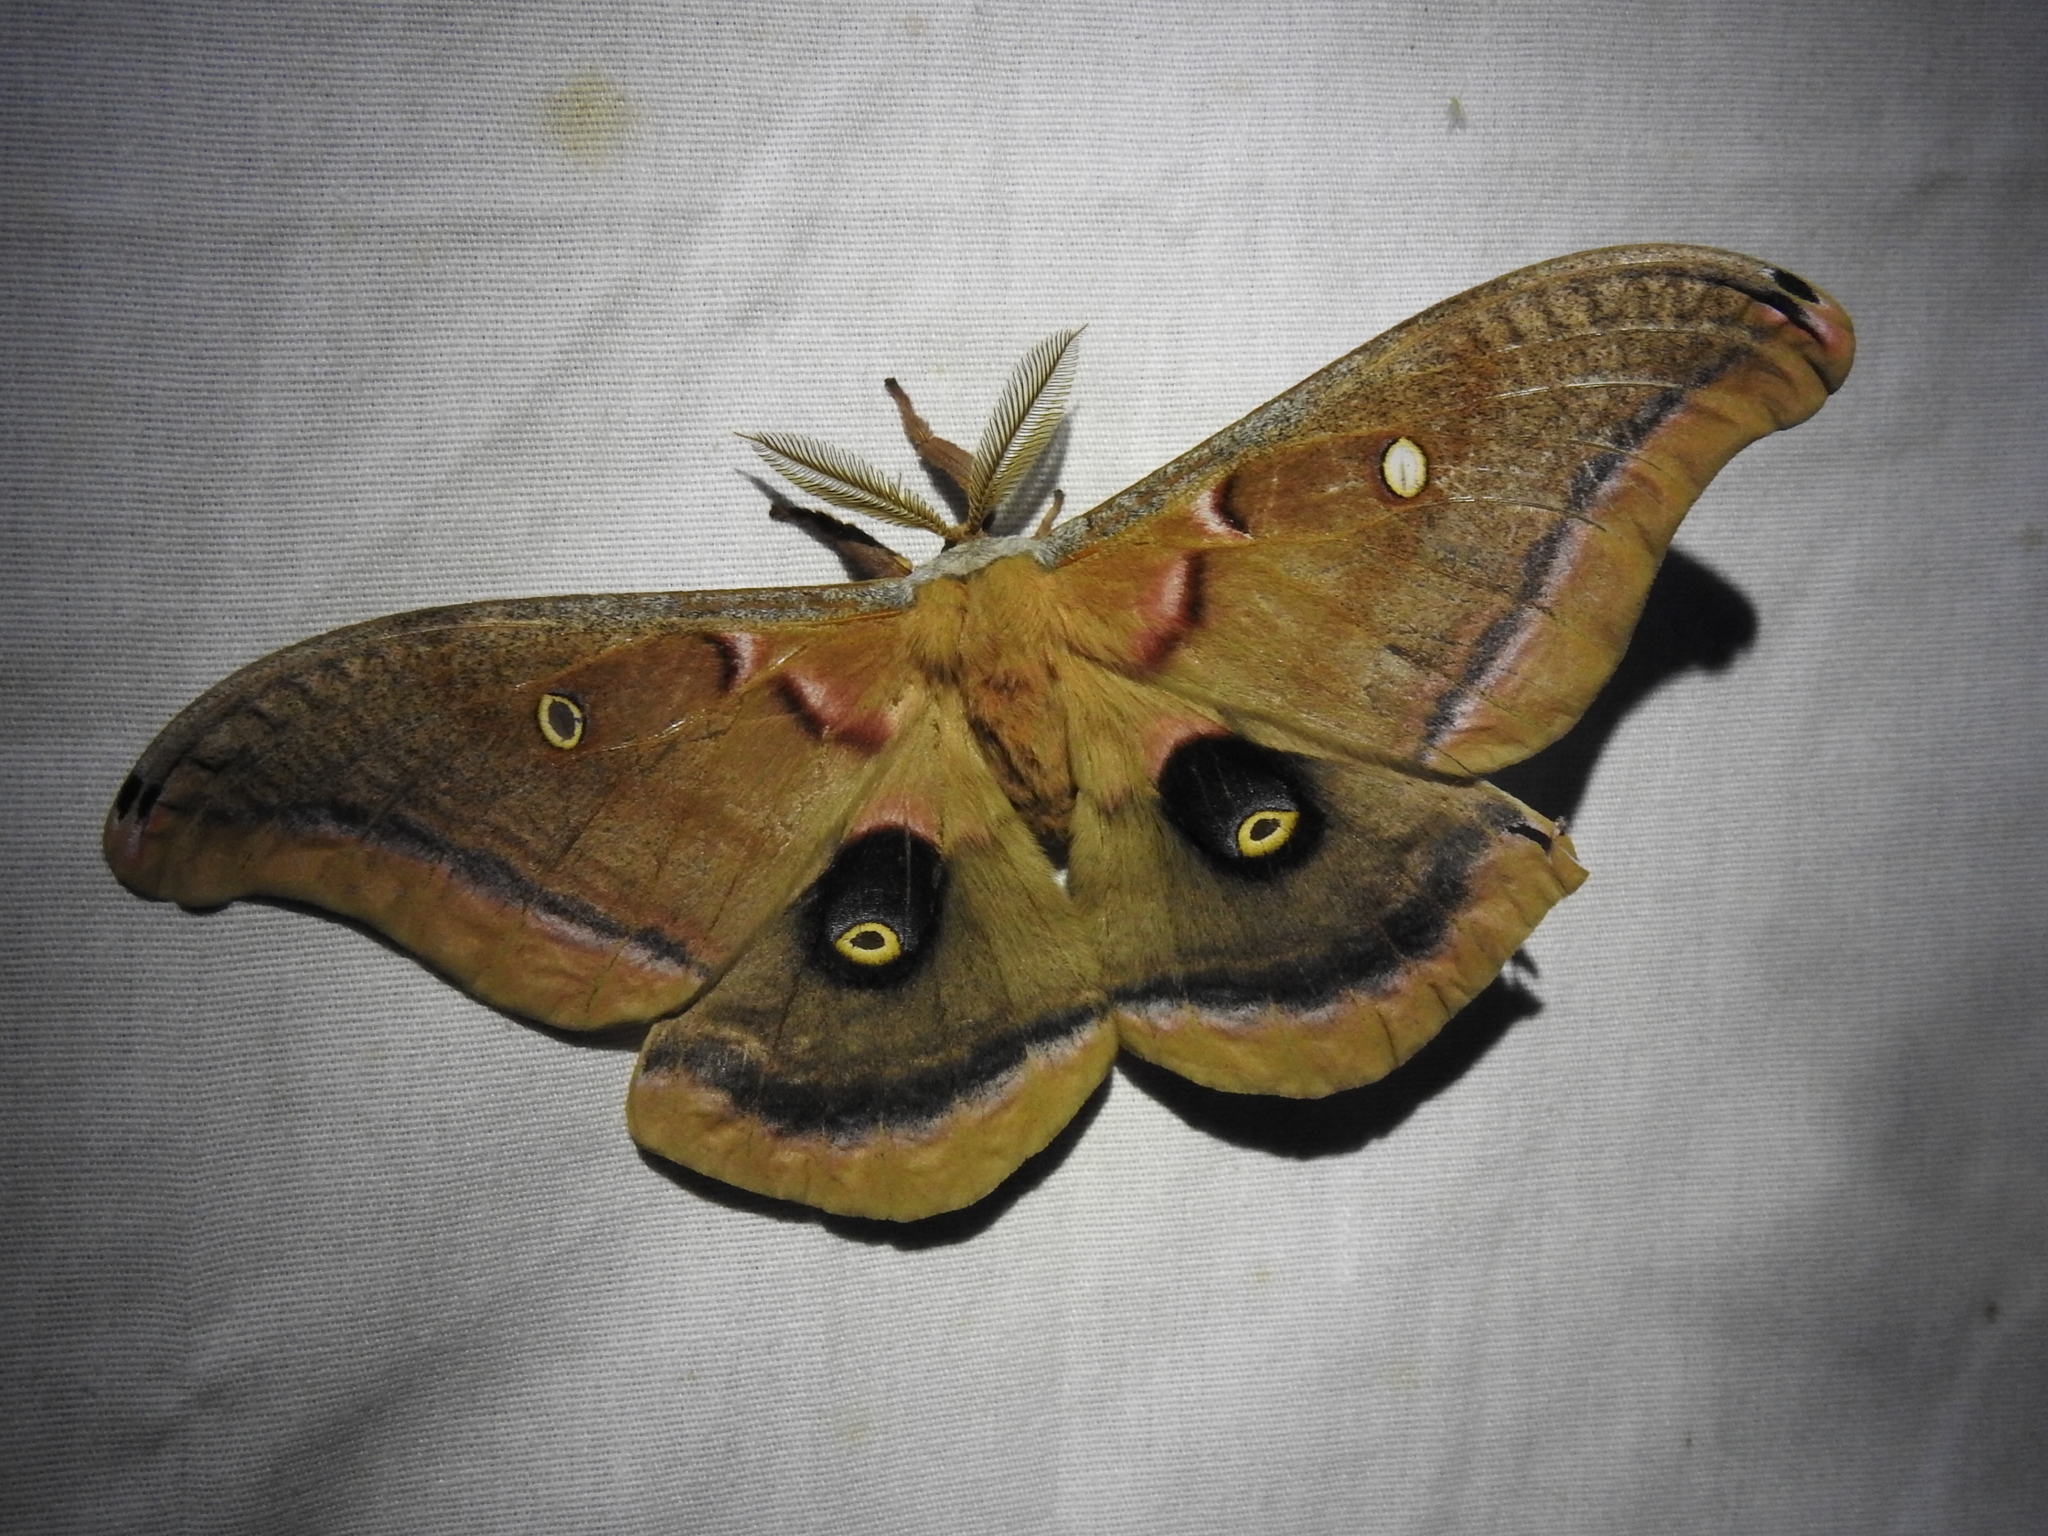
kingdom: Animalia
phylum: Arthropoda
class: Insecta
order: Lepidoptera
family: Saturniidae
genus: Antheraea
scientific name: Antheraea polyphemus
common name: Polyphemus moth
